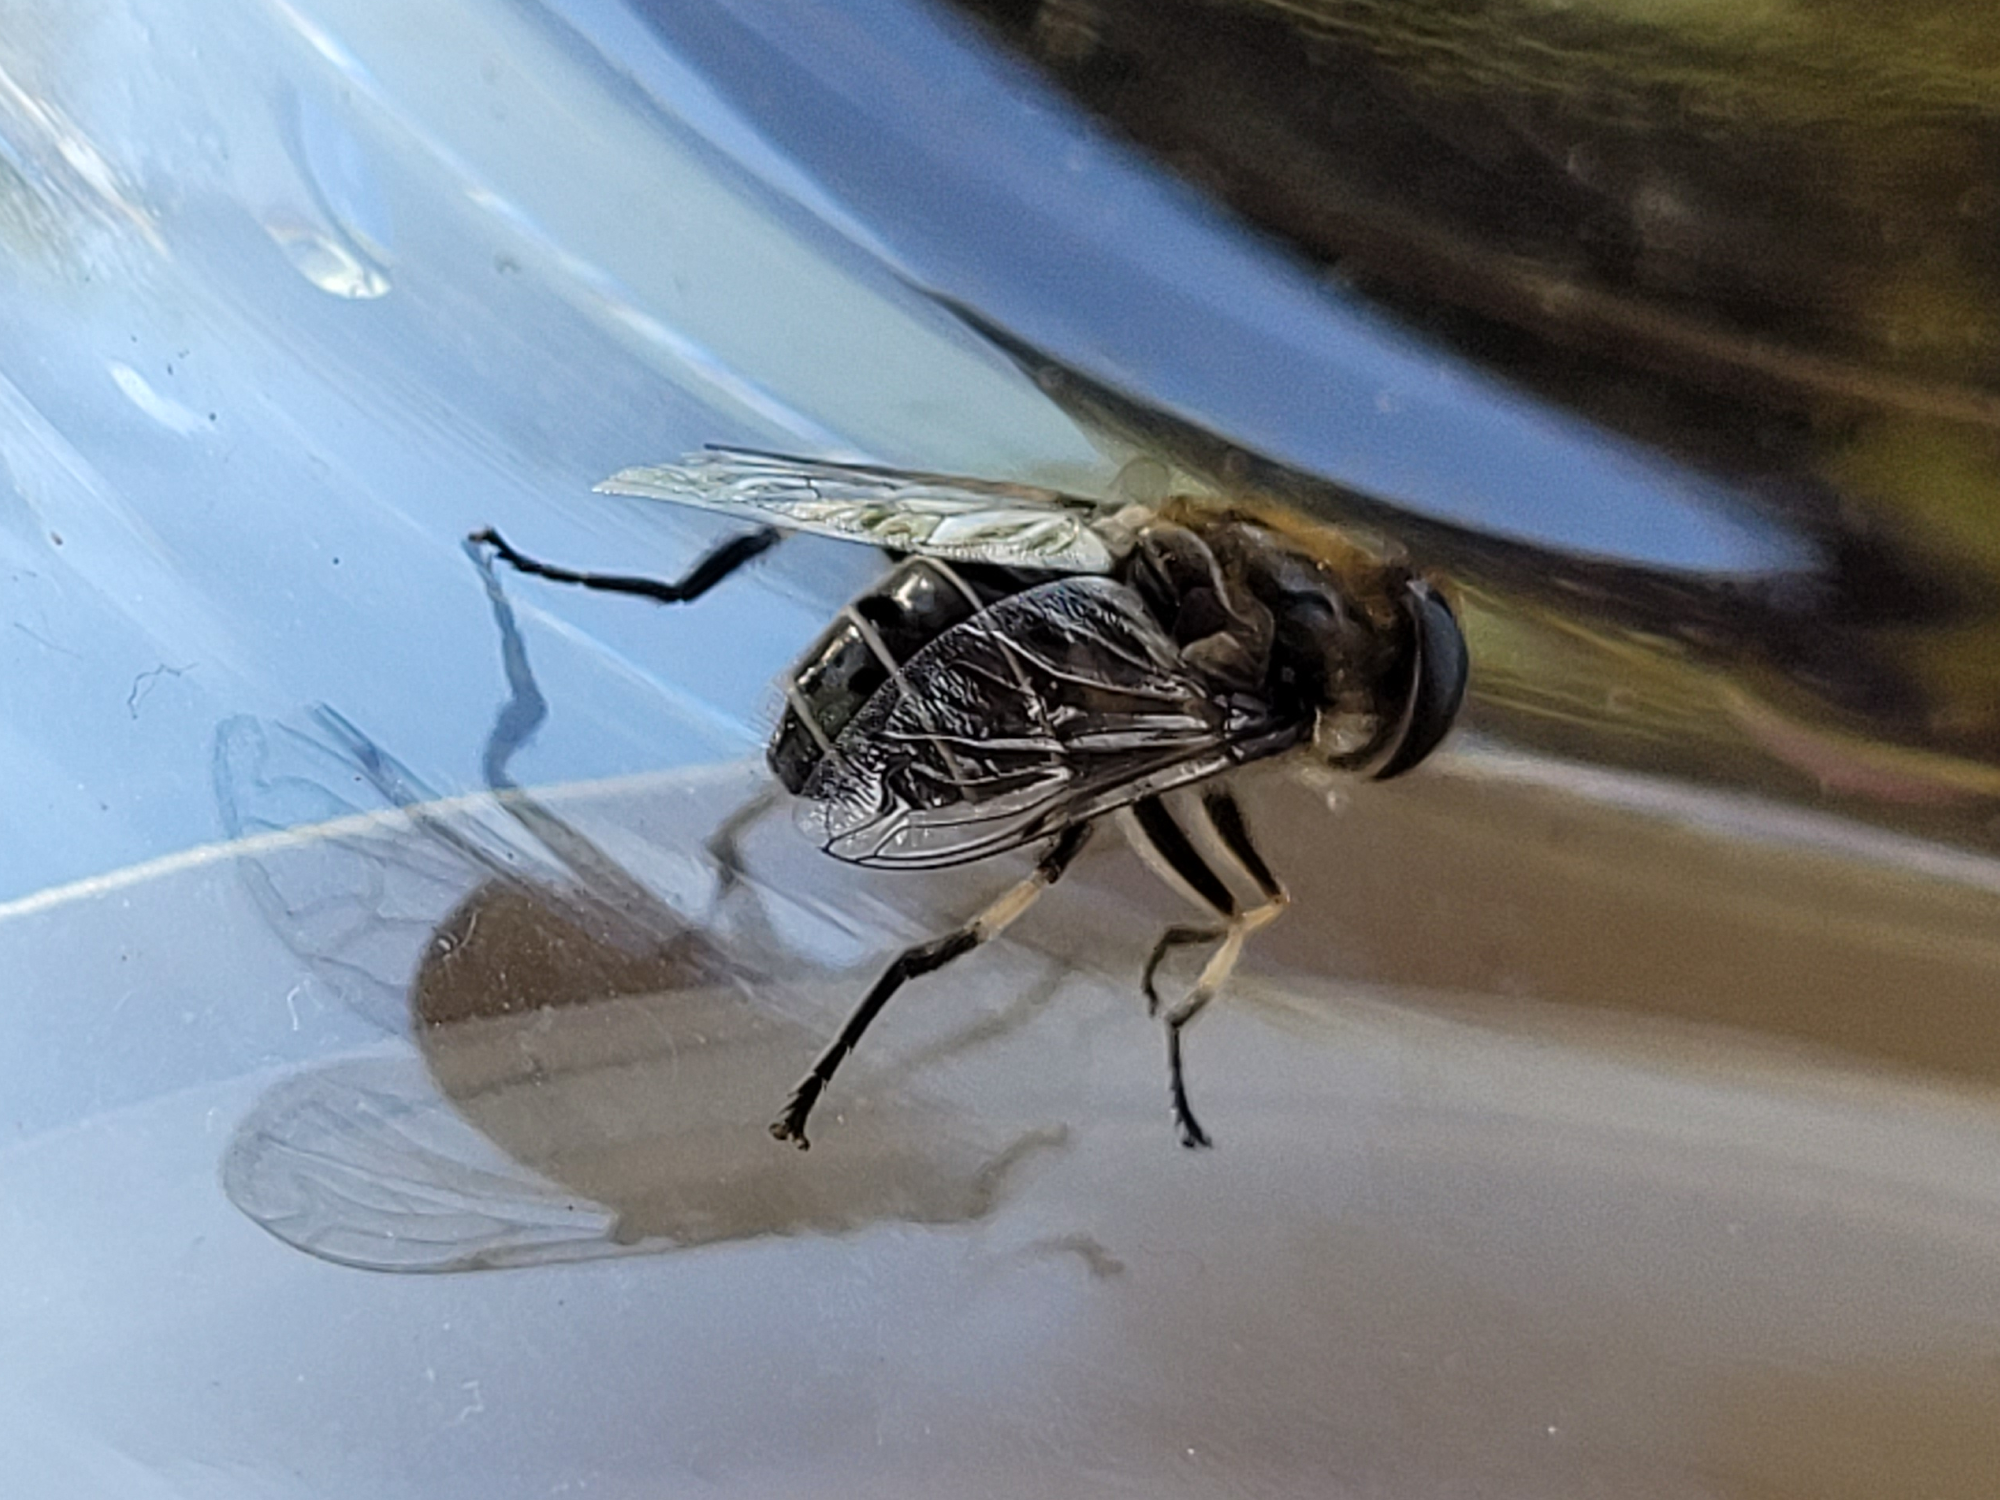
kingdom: Animalia
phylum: Arthropoda
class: Insecta
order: Diptera
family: Syrphidae
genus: Eristalis
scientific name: Eristalis dimidiata
